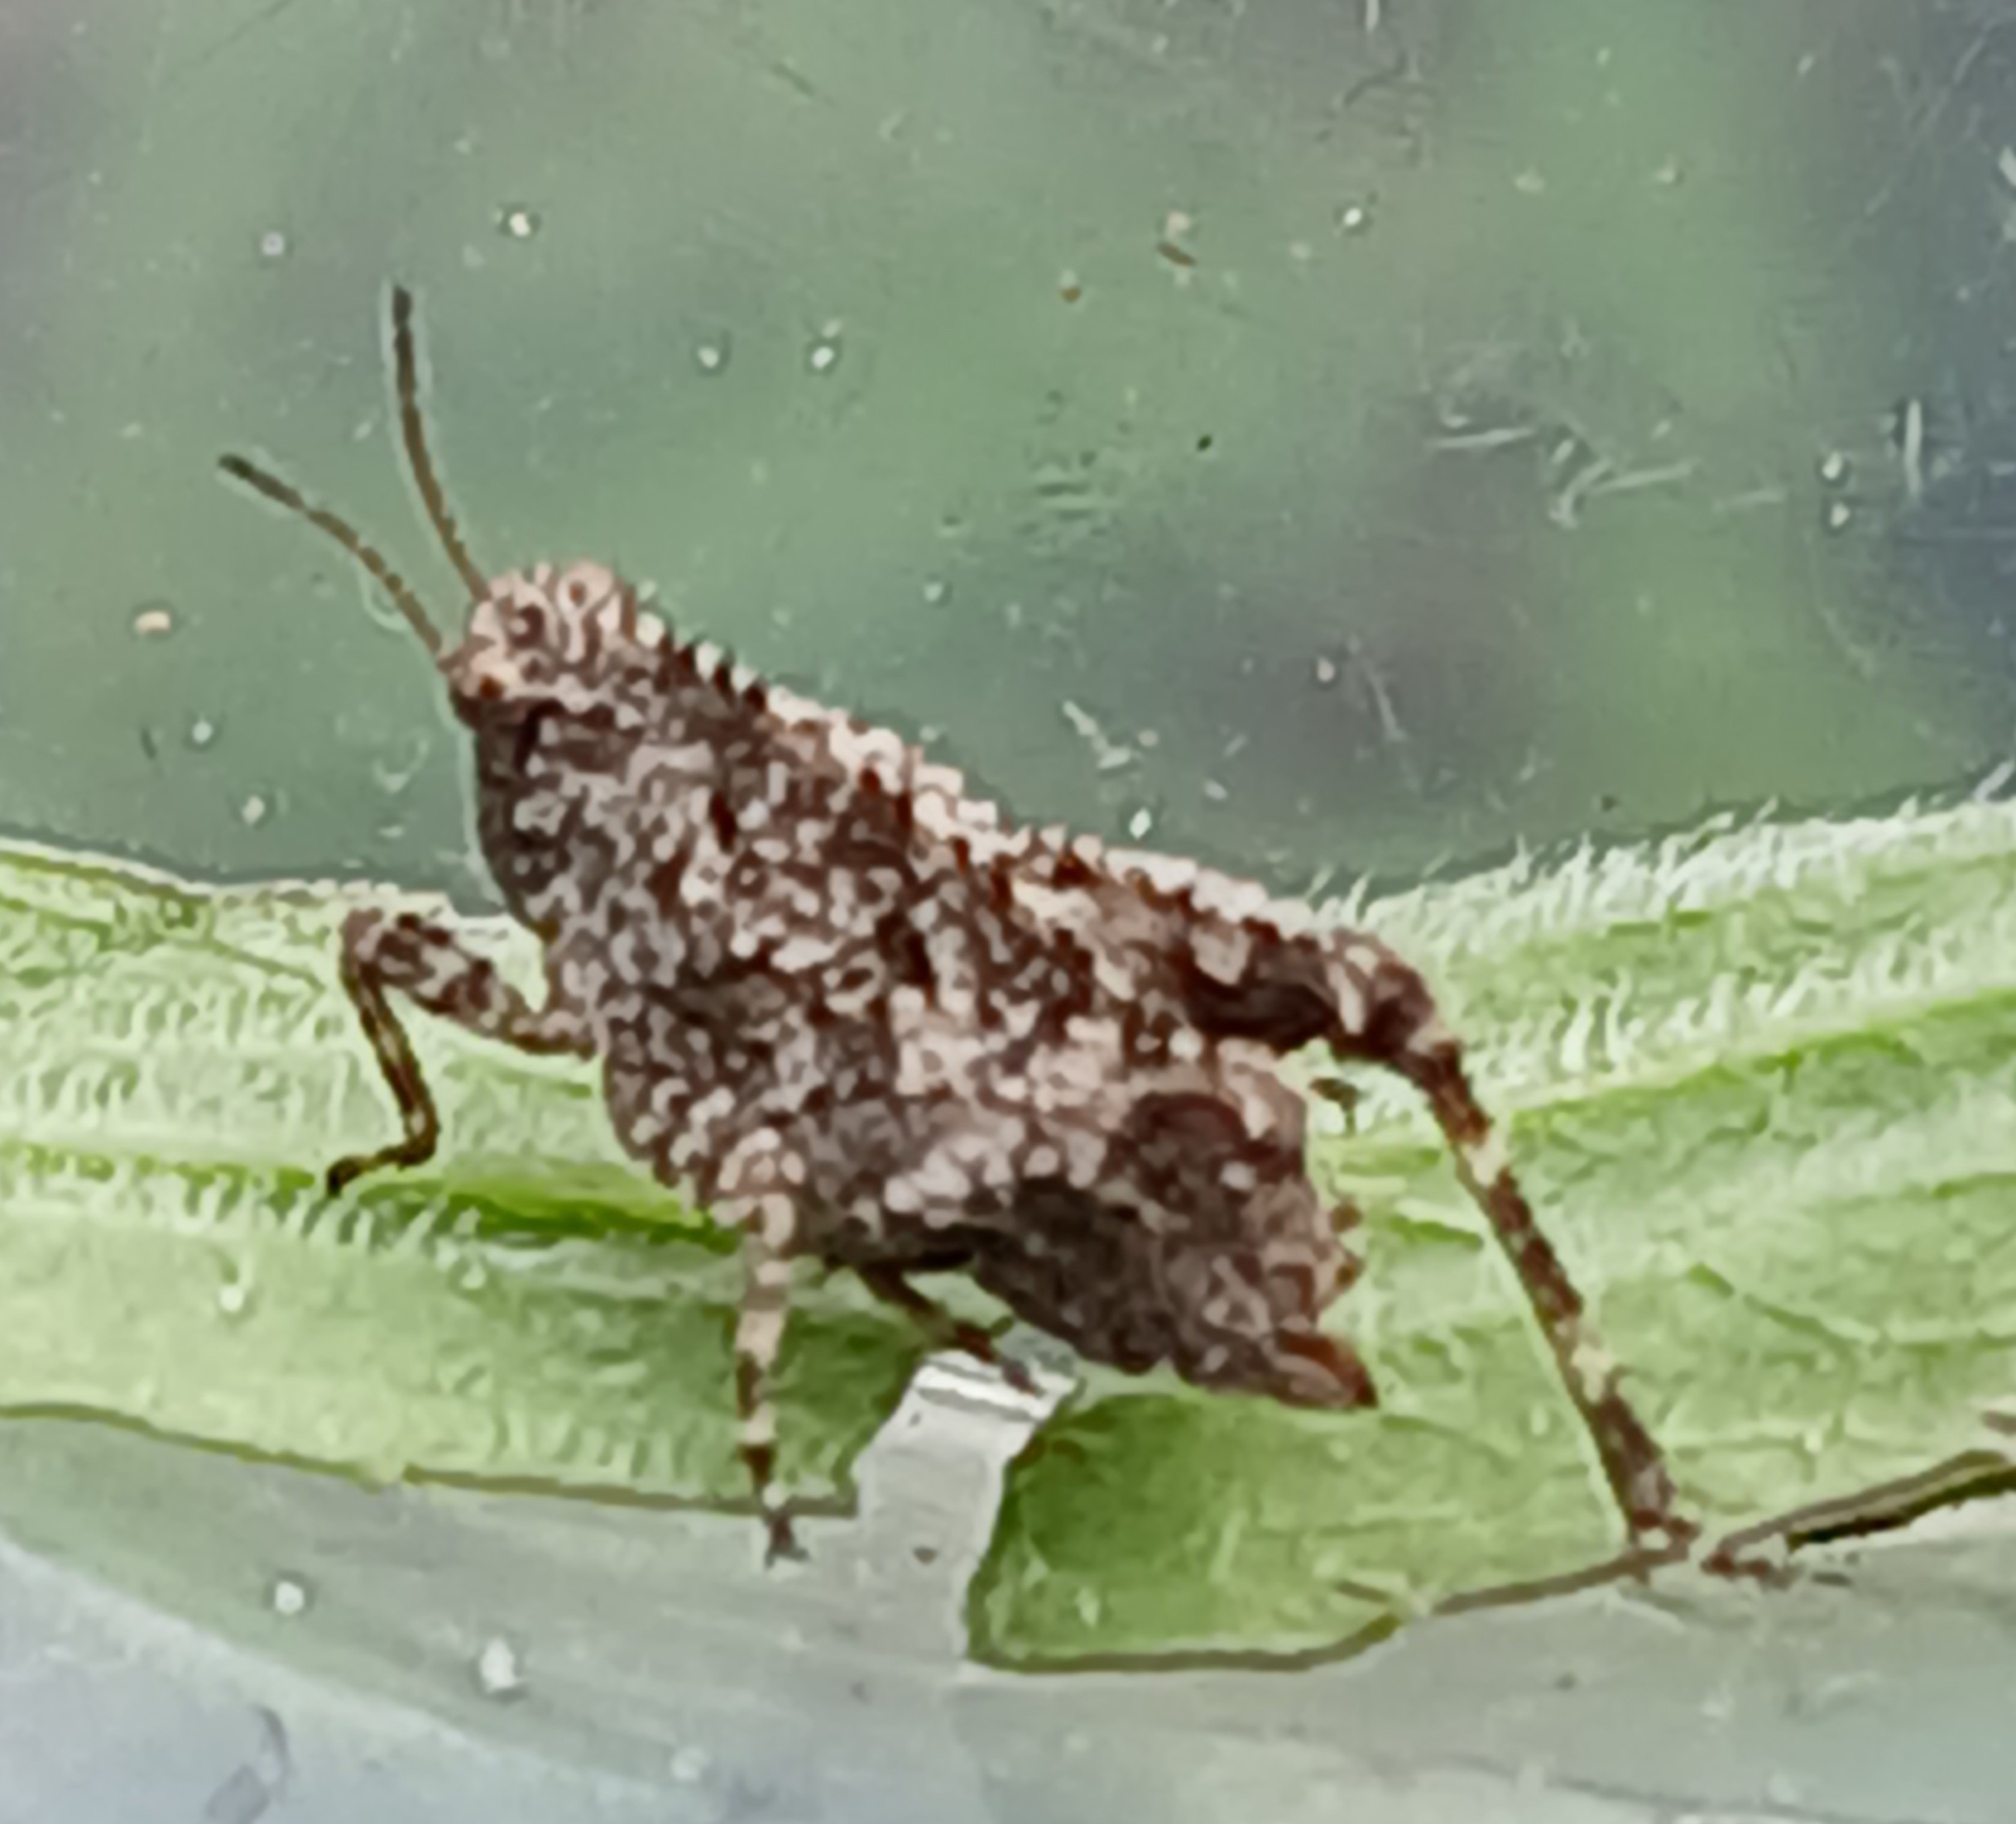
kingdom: Animalia
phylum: Arthropoda
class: Insecta
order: Orthoptera
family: Tetrigidae
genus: Tetrix
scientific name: Tetrix tenuicornis
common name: Long-horned groundhopper
